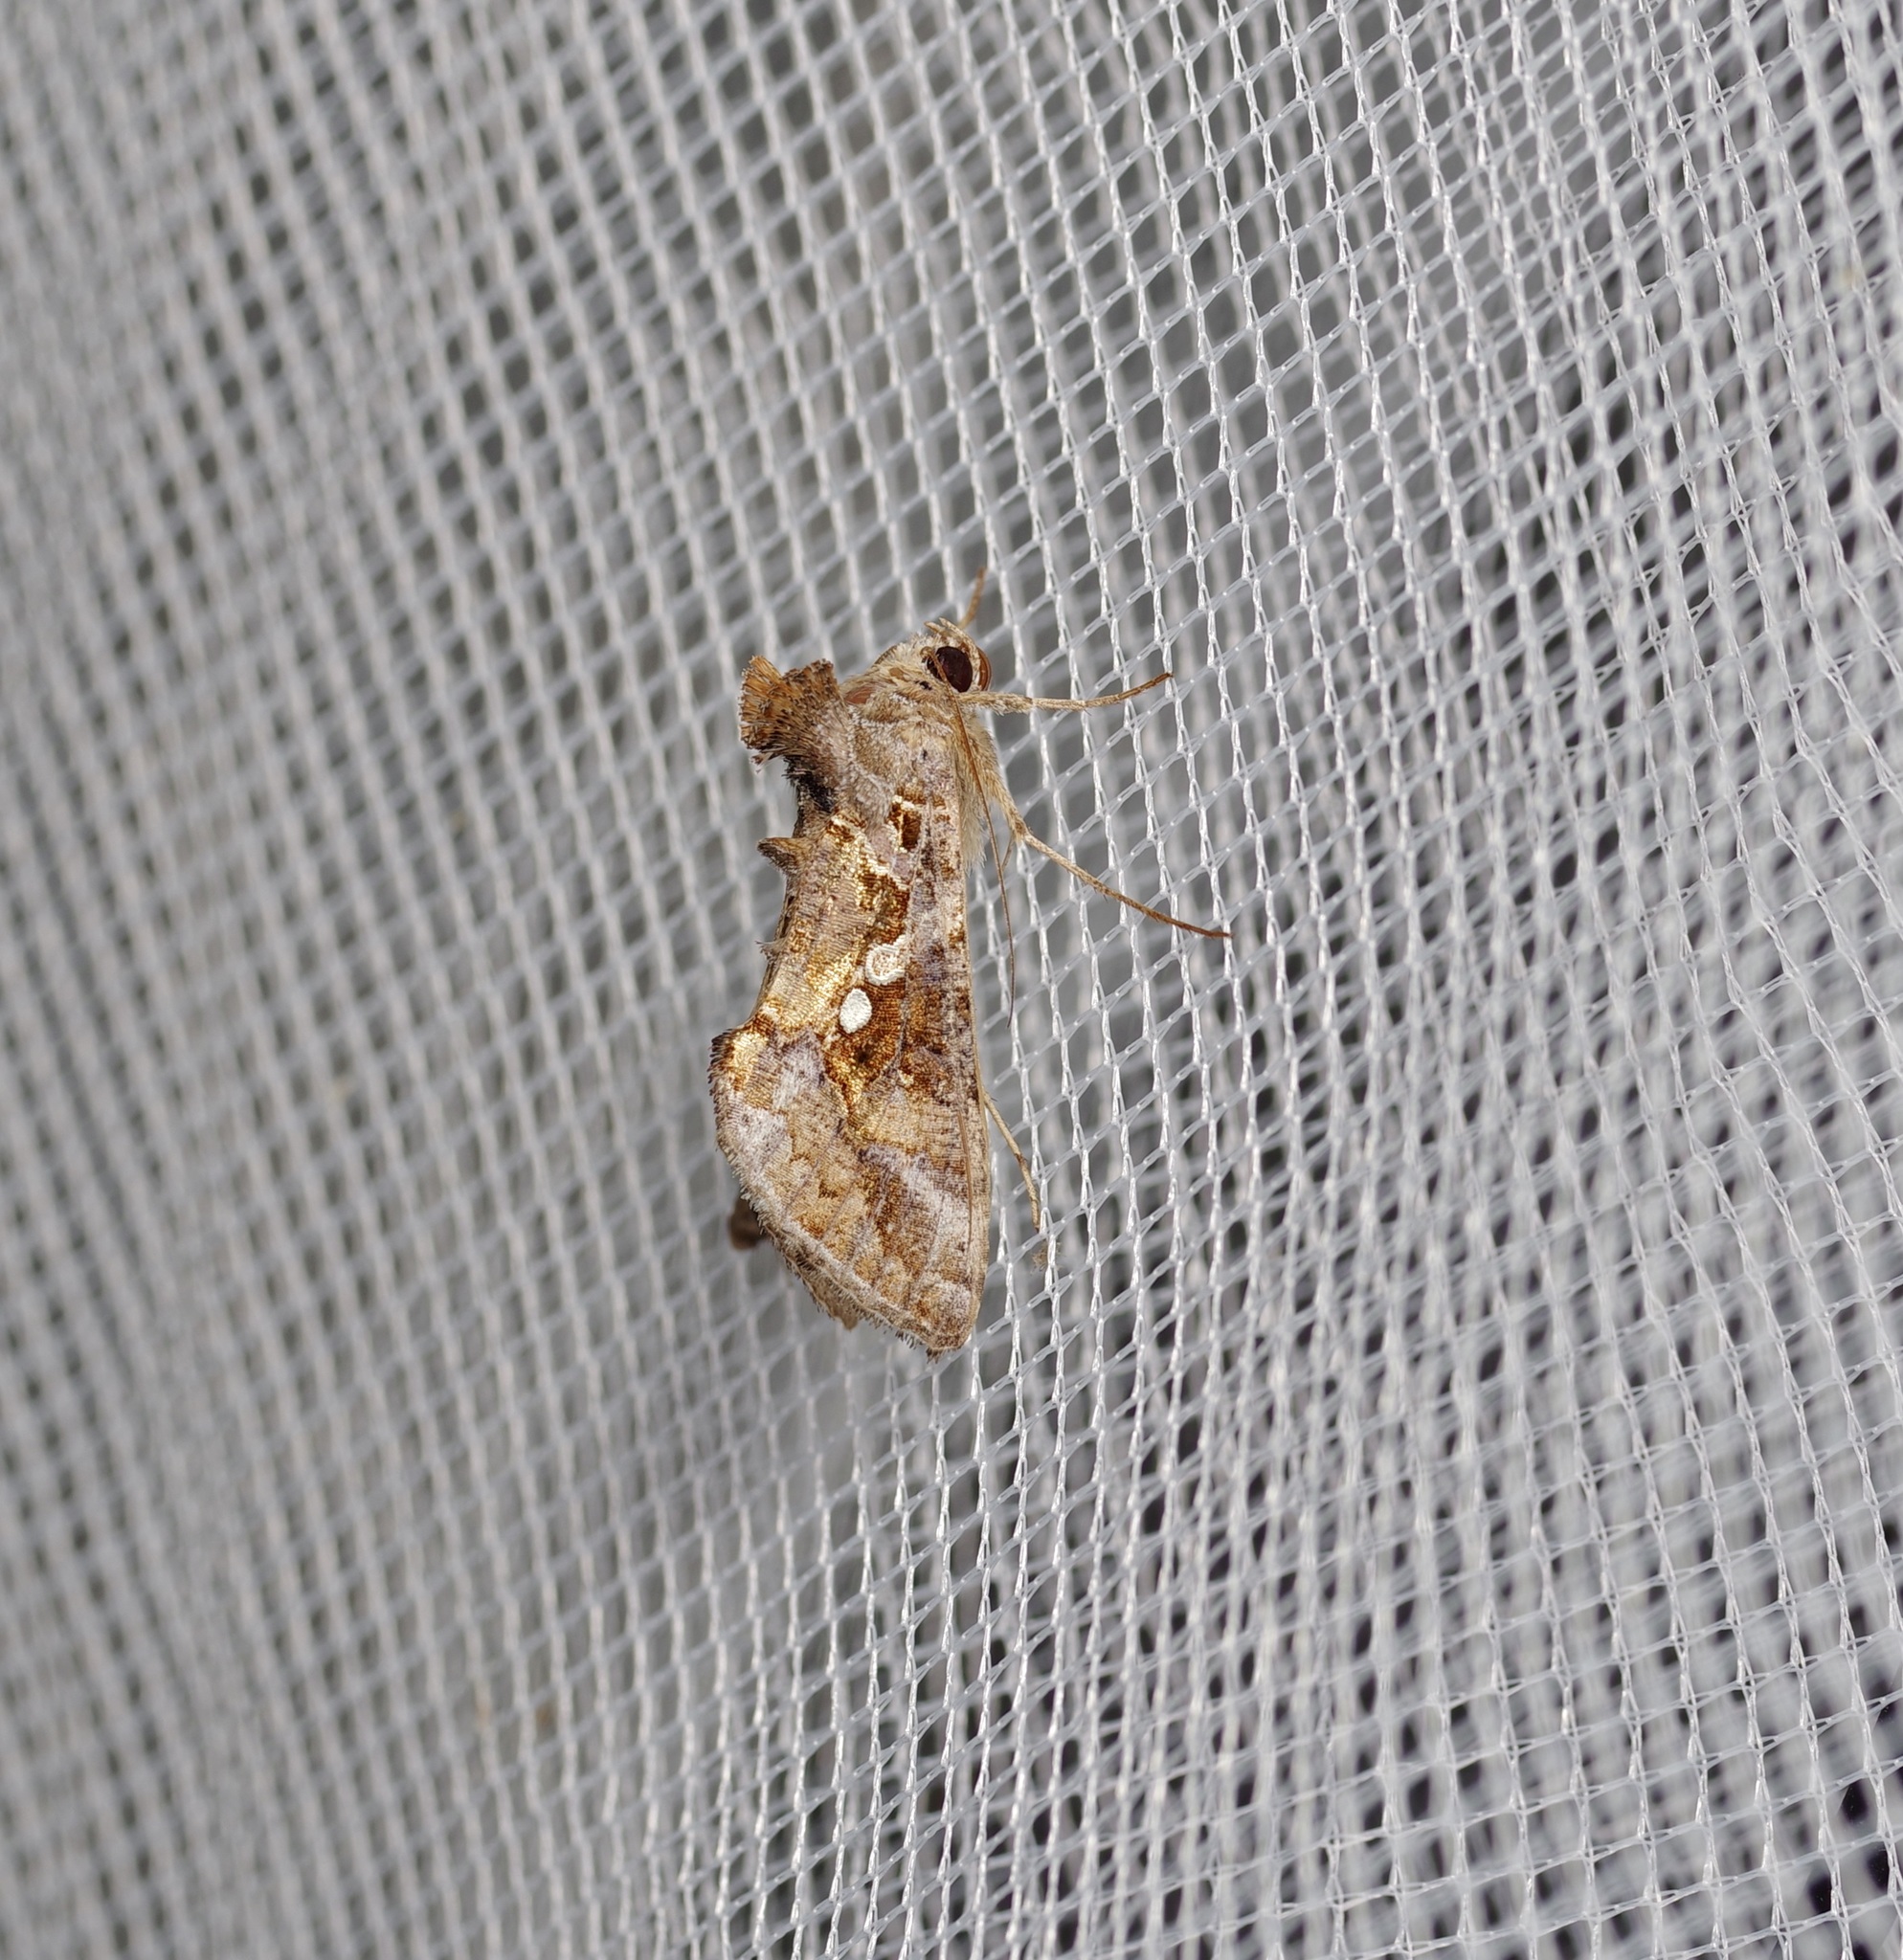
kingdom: Animalia
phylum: Arthropoda
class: Insecta
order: Lepidoptera
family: Noctuidae
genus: Chrysodeixis
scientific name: Chrysodeixis includens
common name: Cutworm moth
